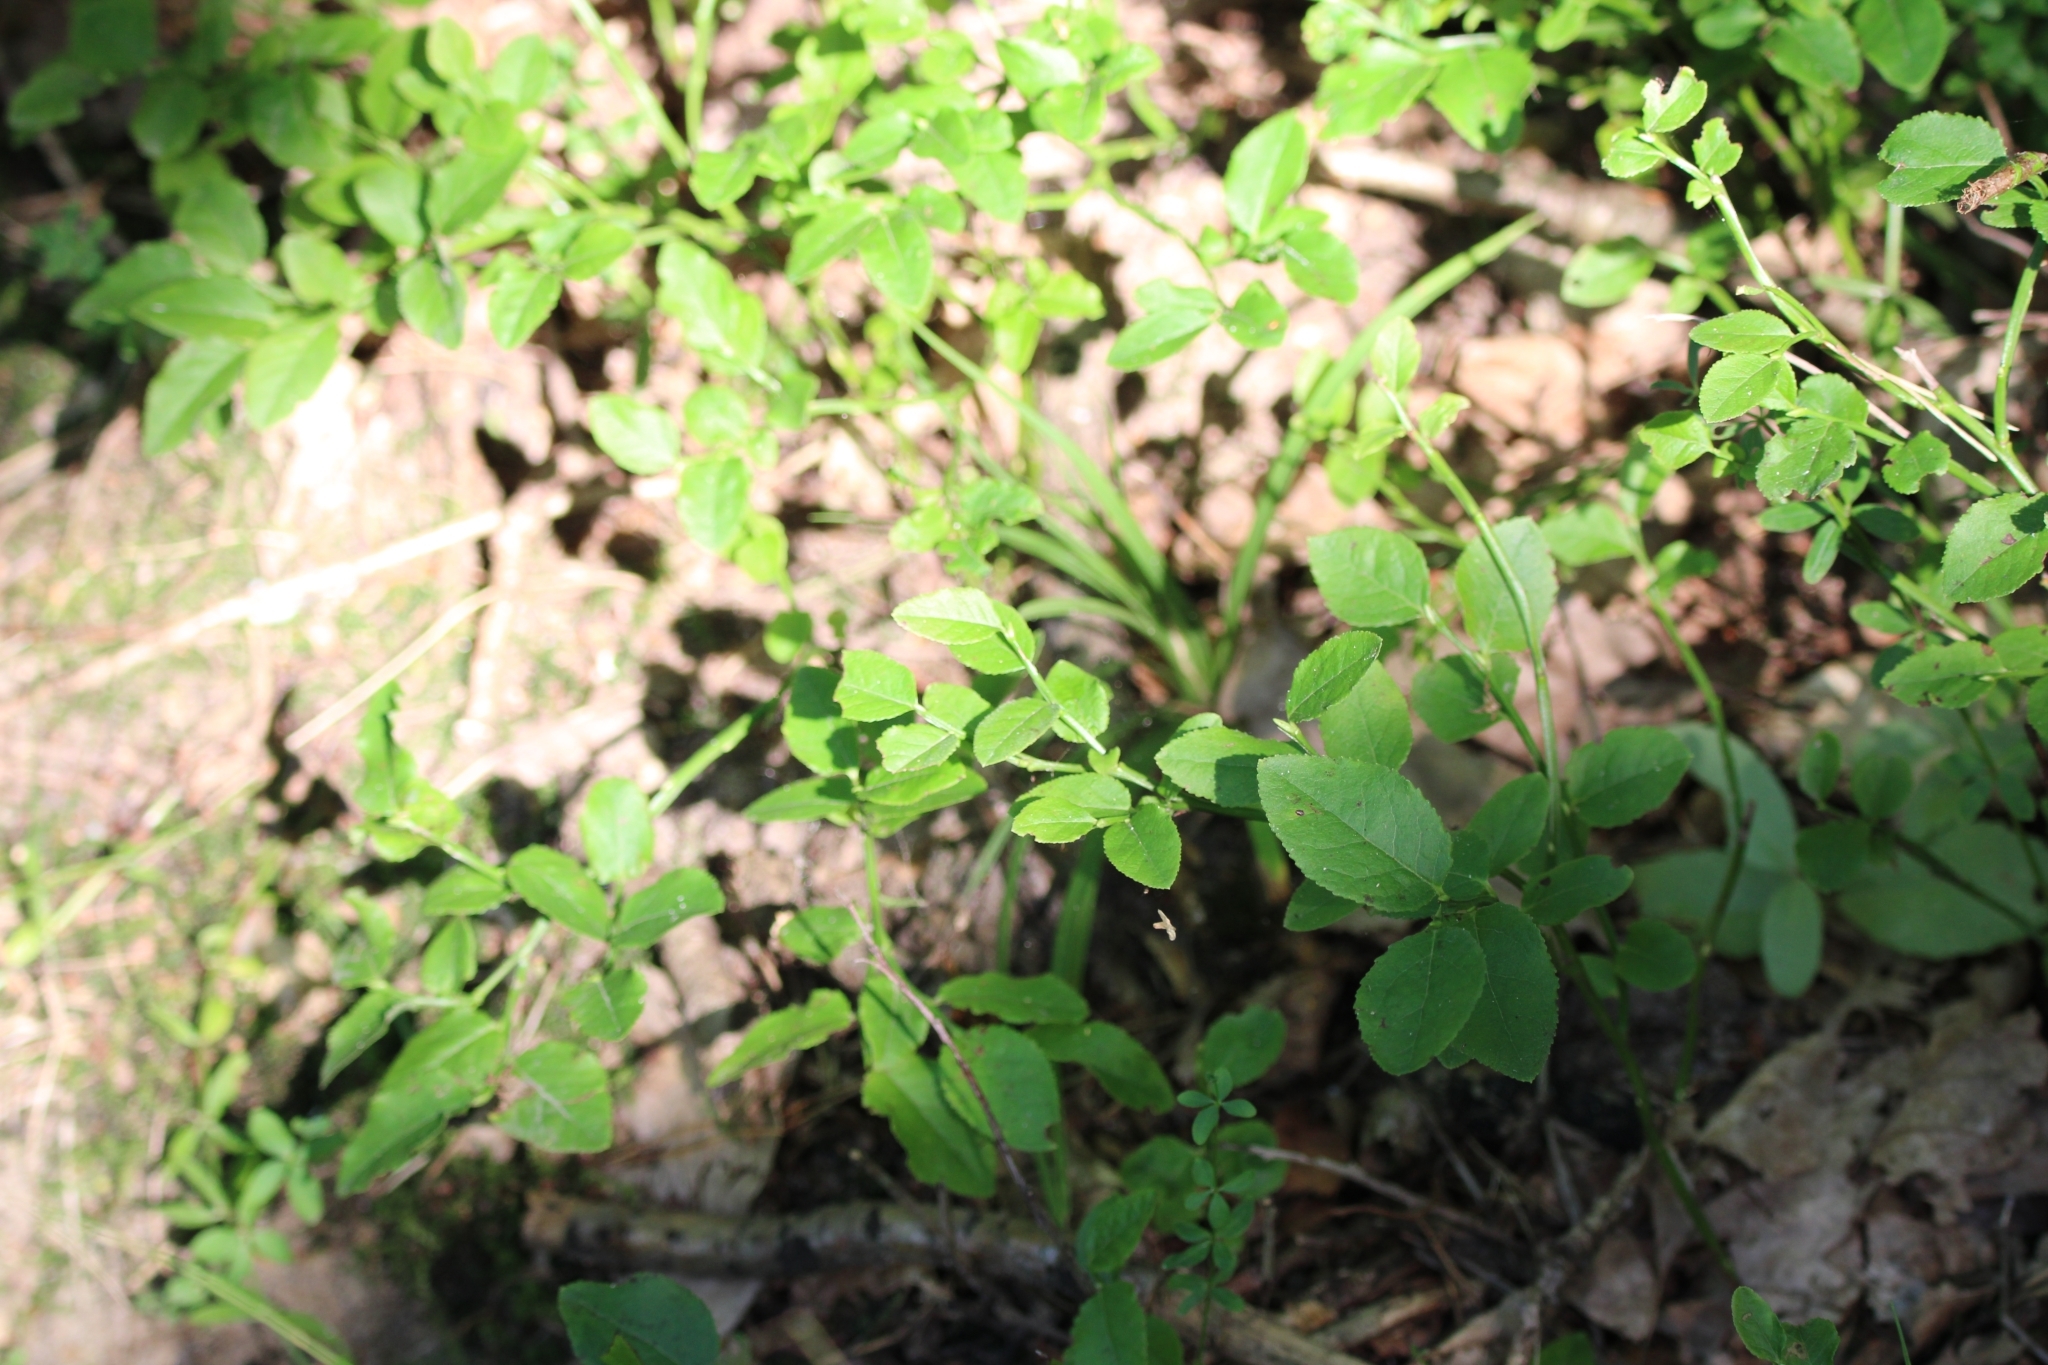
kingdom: Plantae
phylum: Tracheophyta
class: Magnoliopsida
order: Ericales
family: Ericaceae
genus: Vaccinium
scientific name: Vaccinium myrtillus
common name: Bilberry
